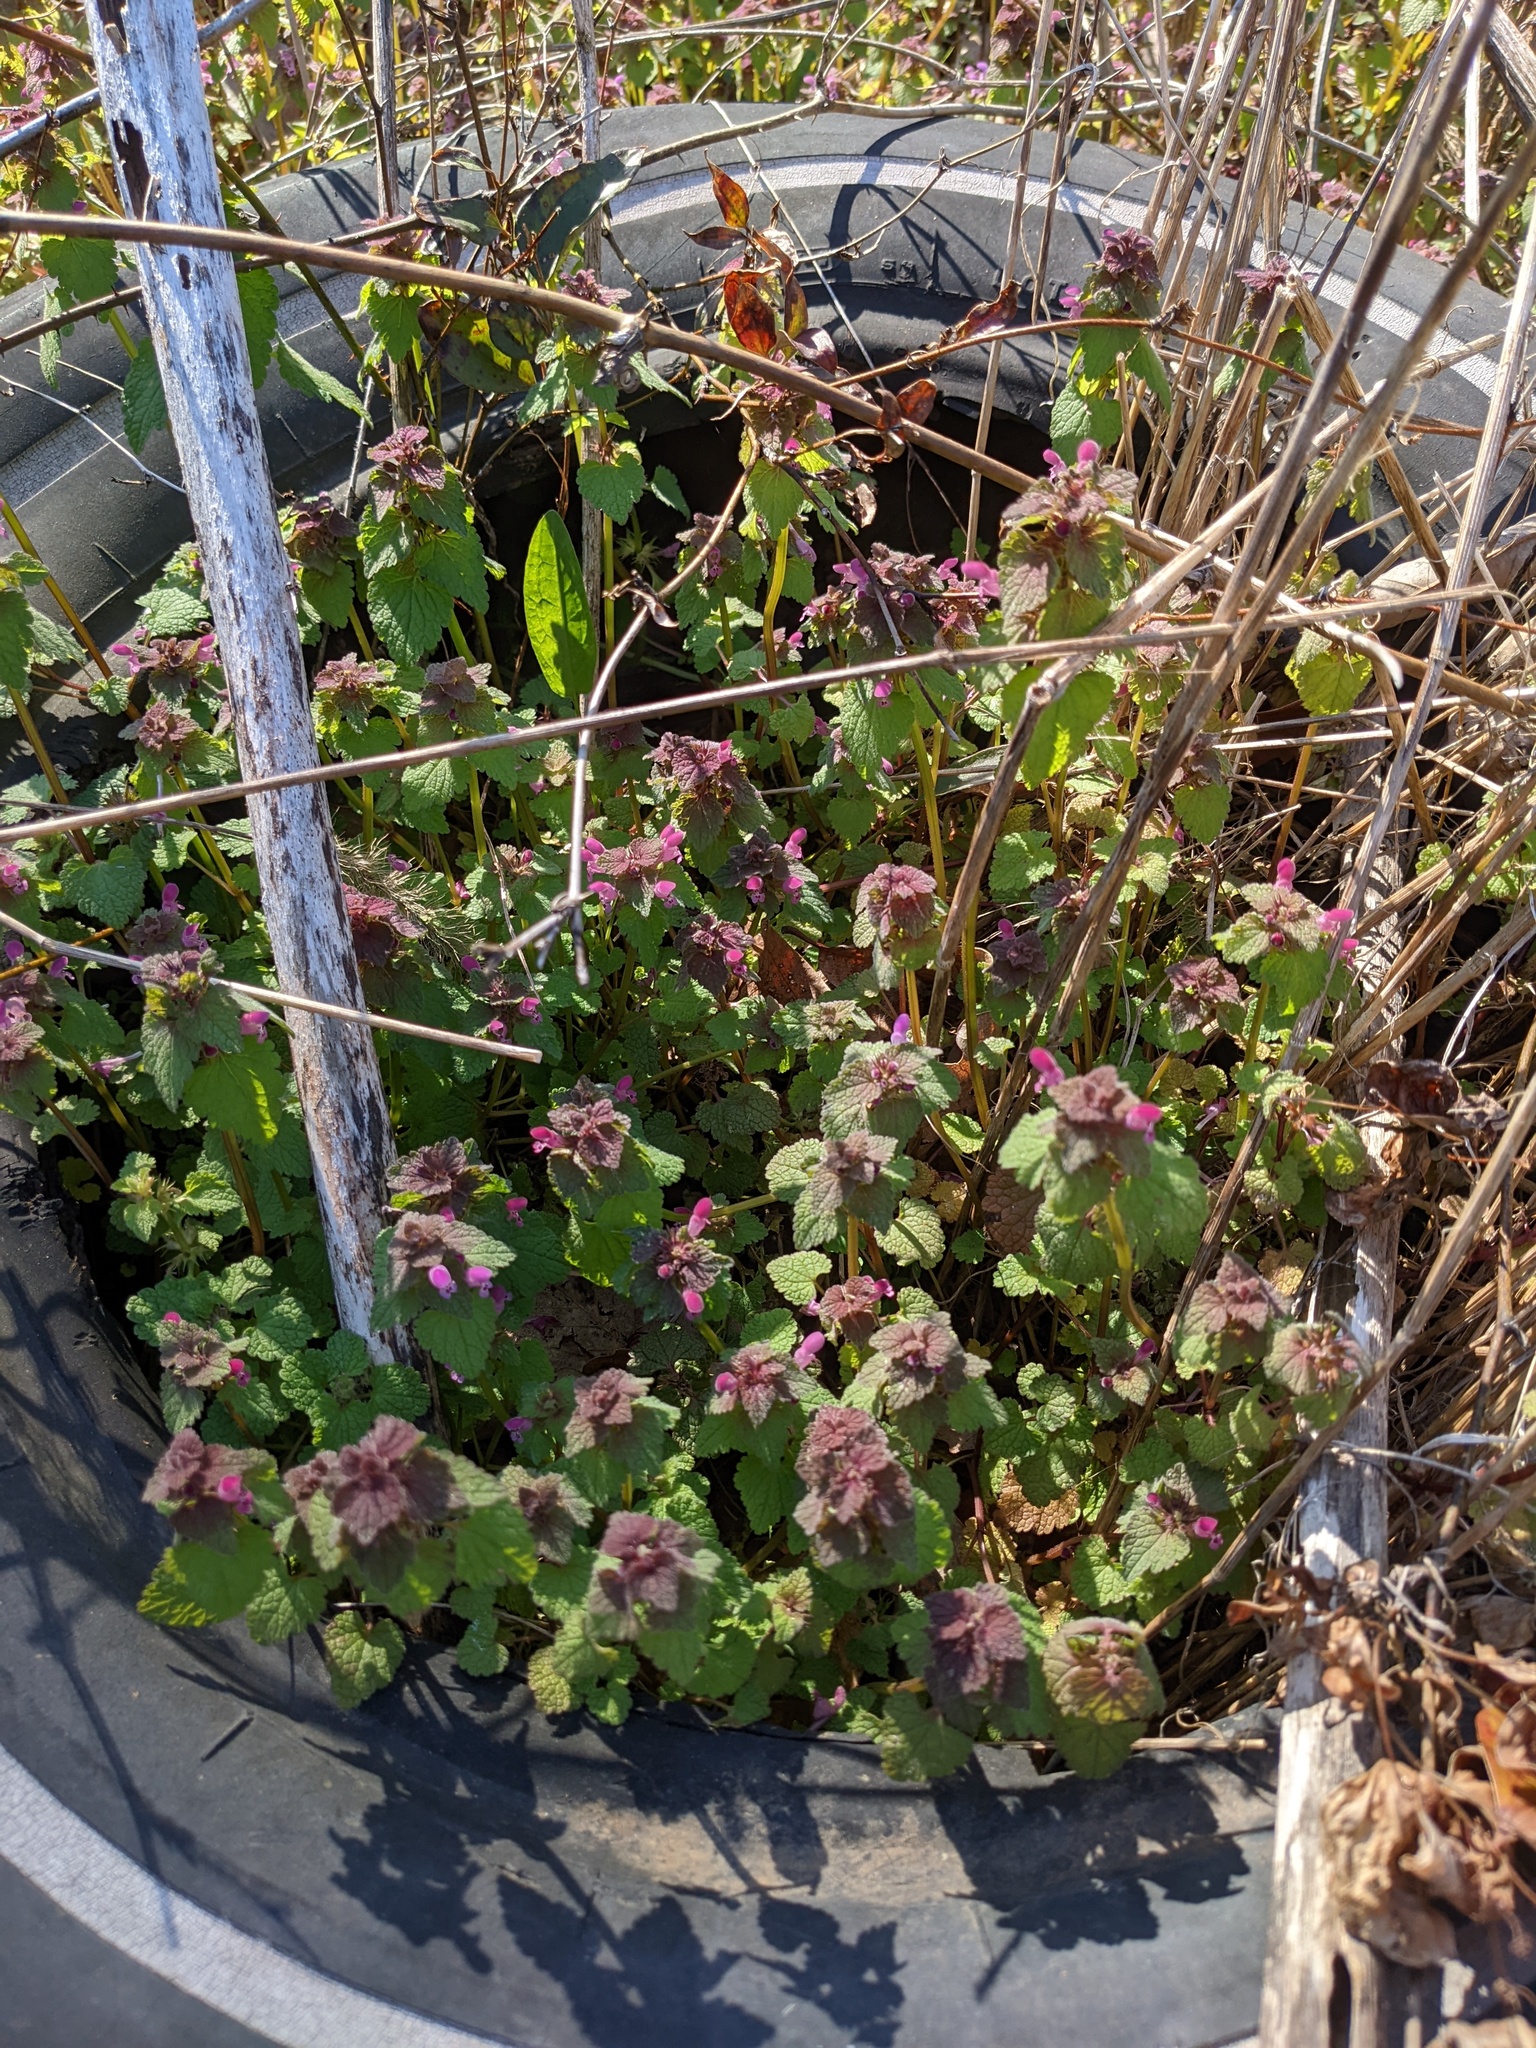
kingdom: Plantae
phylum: Tracheophyta
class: Magnoliopsida
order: Lamiales
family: Lamiaceae
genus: Lamium
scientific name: Lamium purpureum
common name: Red dead-nettle
